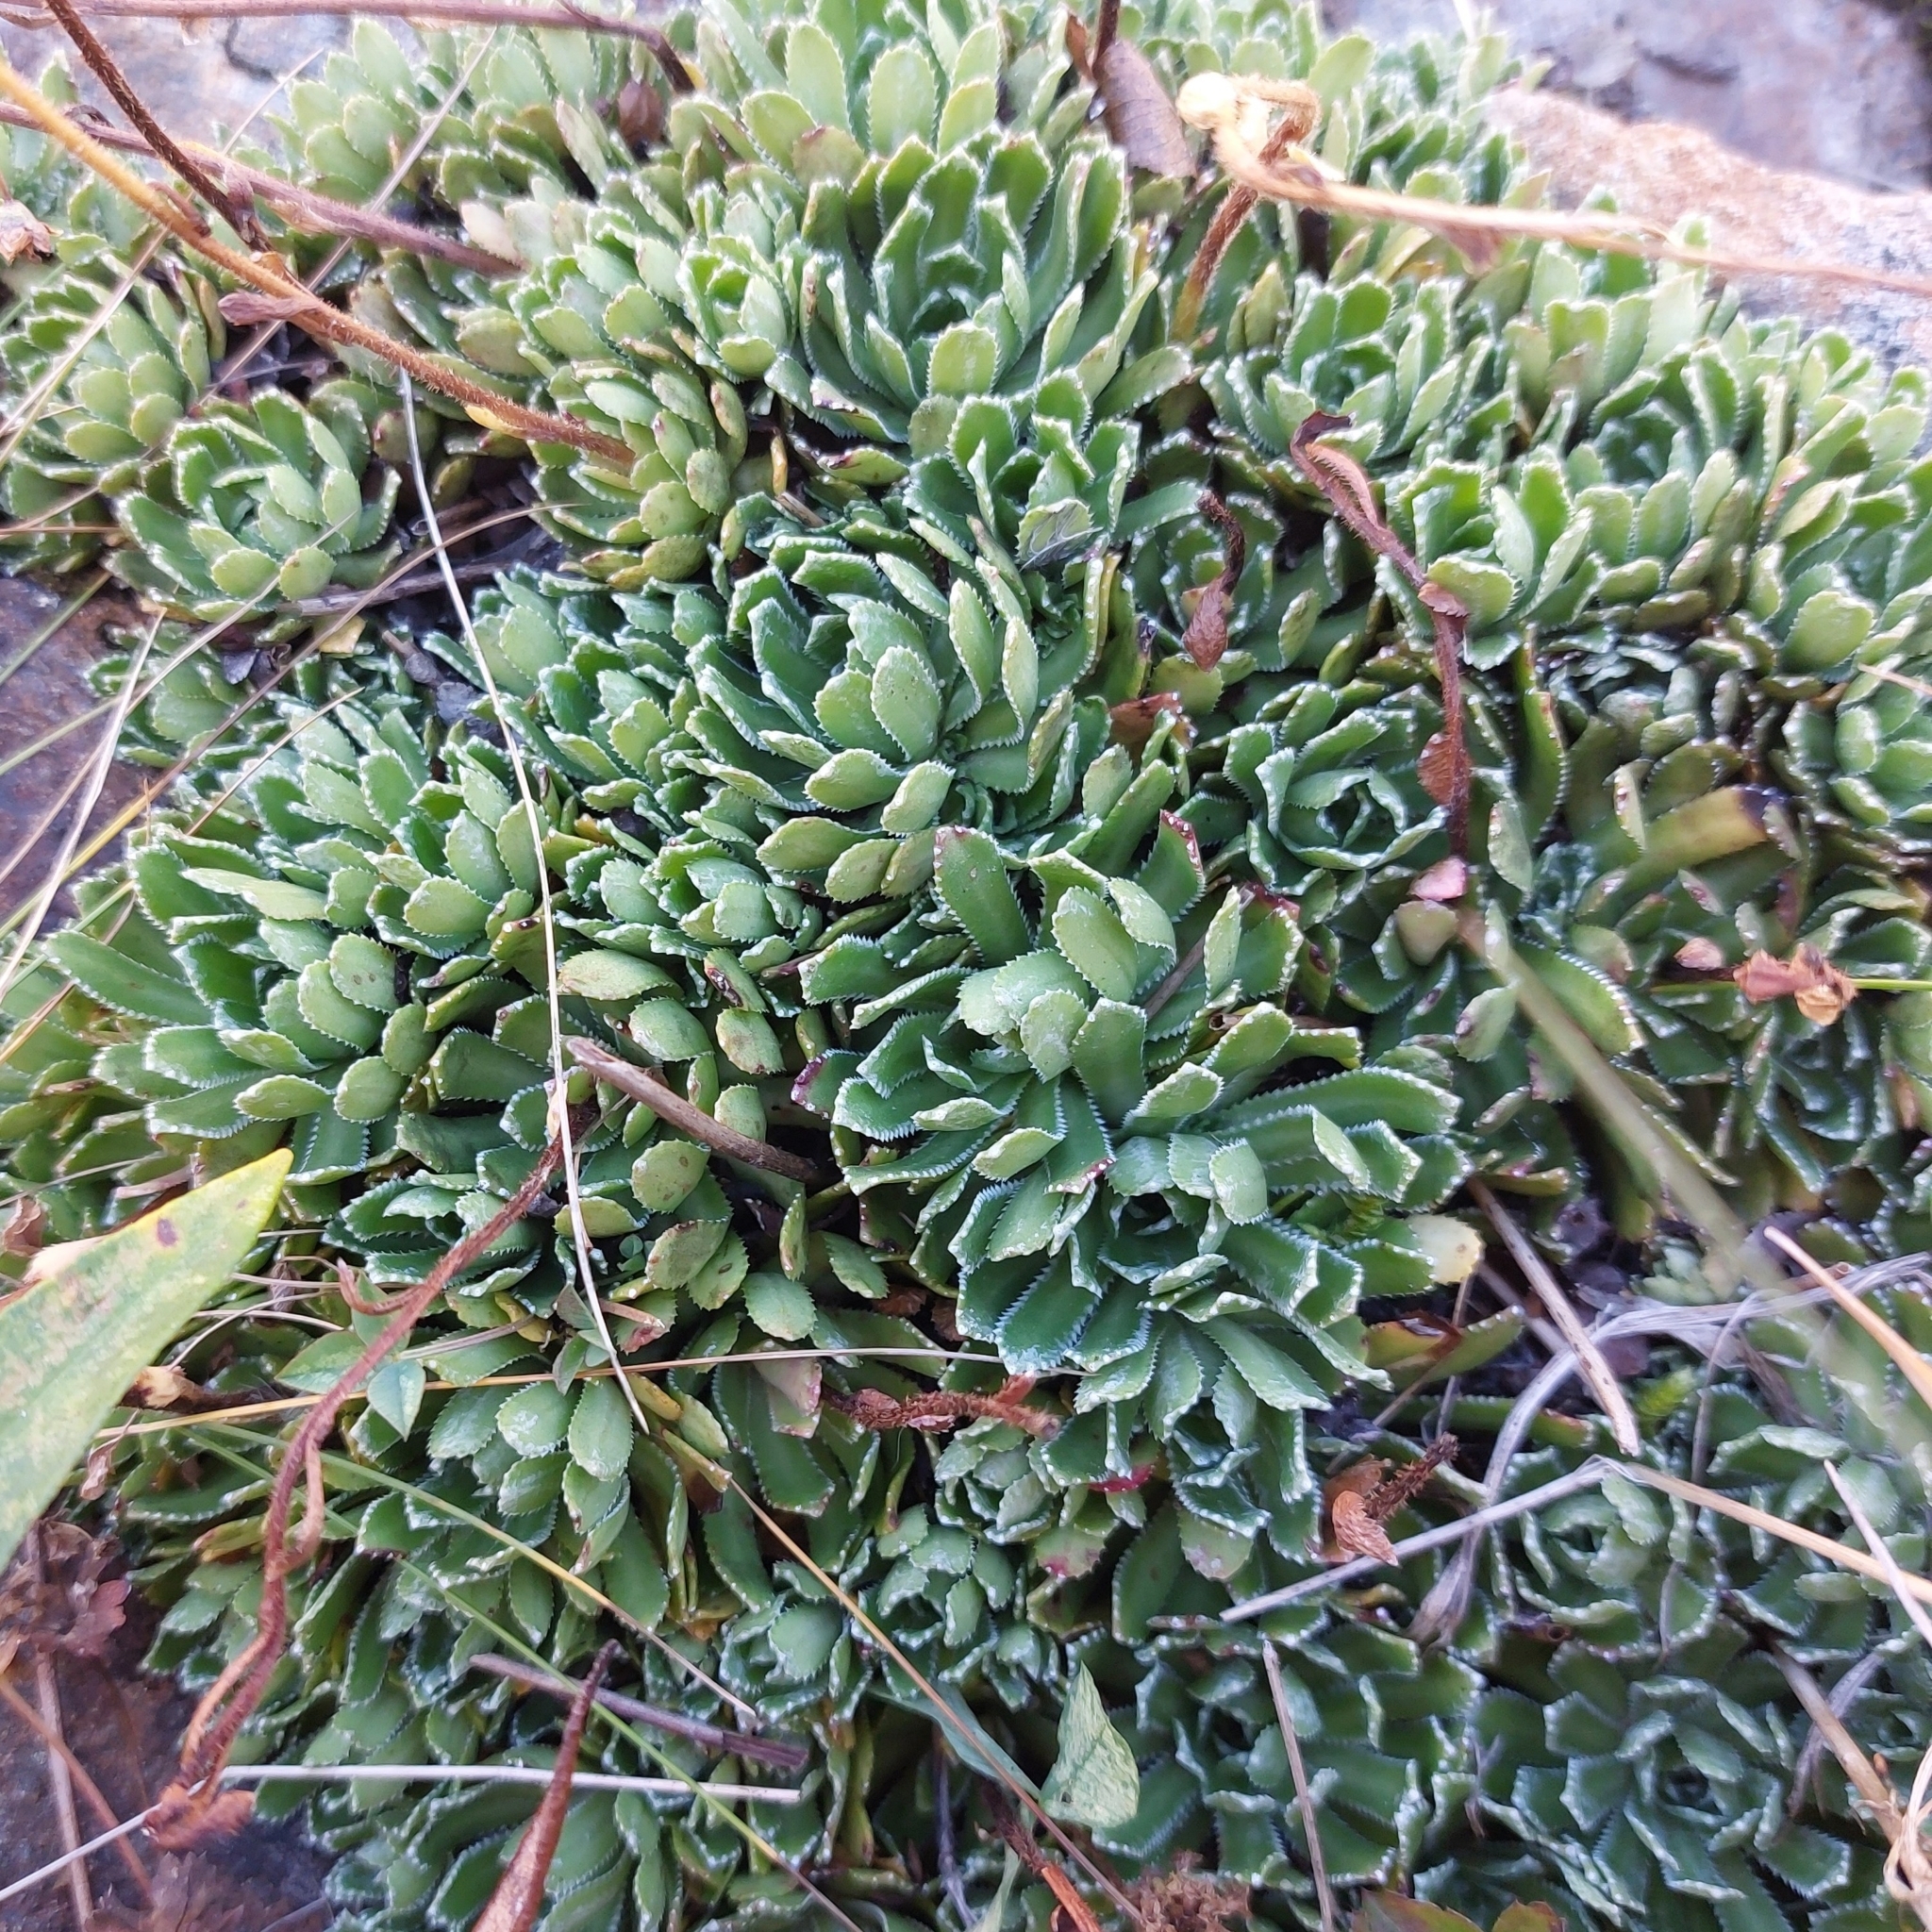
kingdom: Plantae
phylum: Tracheophyta
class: Magnoliopsida
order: Saxifragales
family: Saxifragaceae
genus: Saxifraga
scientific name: Saxifraga paniculata
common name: Livelong saxifrage
